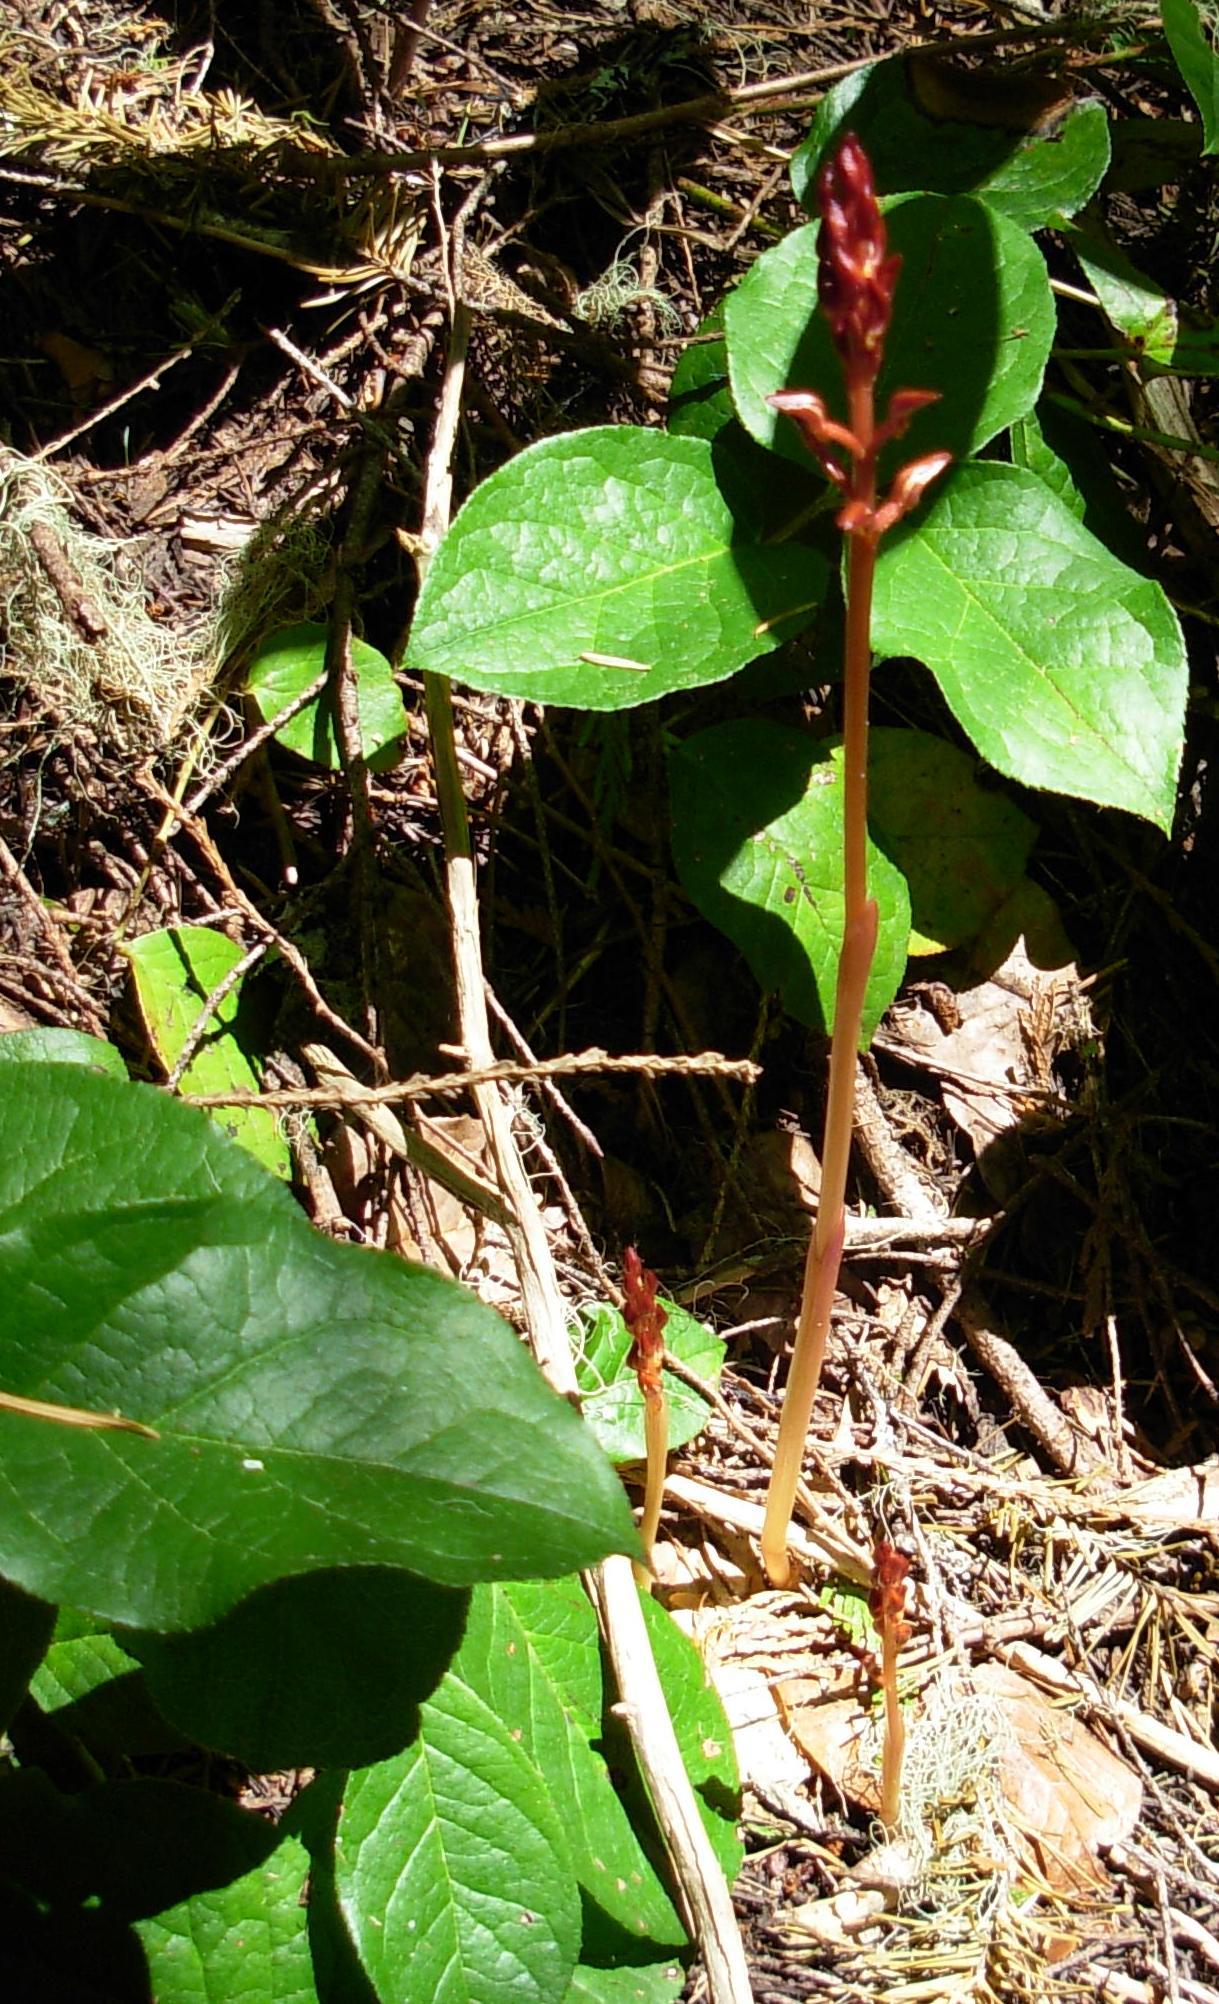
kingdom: Plantae
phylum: Tracheophyta
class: Liliopsida
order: Asparagales
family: Orchidaceae
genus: Corallorhiza
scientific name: Corallorhiza maculata
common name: Spotted coralroot
